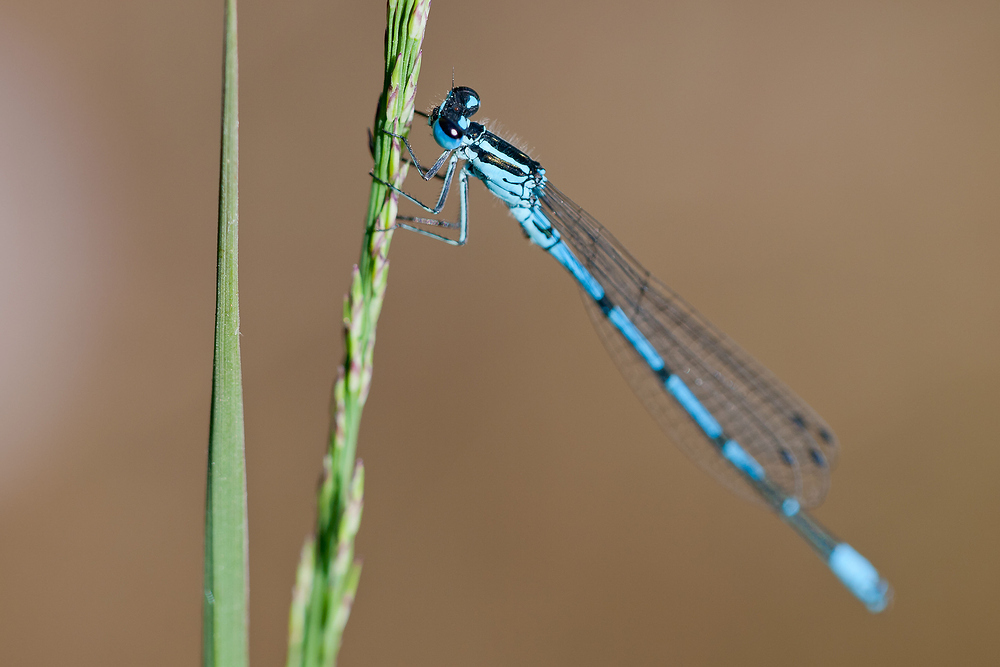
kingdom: Animalia
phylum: Arthropoda
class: Insecta
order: Odonata
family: Coenagrionidae
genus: Coenagrion
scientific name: Coenagrion puella
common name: Azure damselfly
